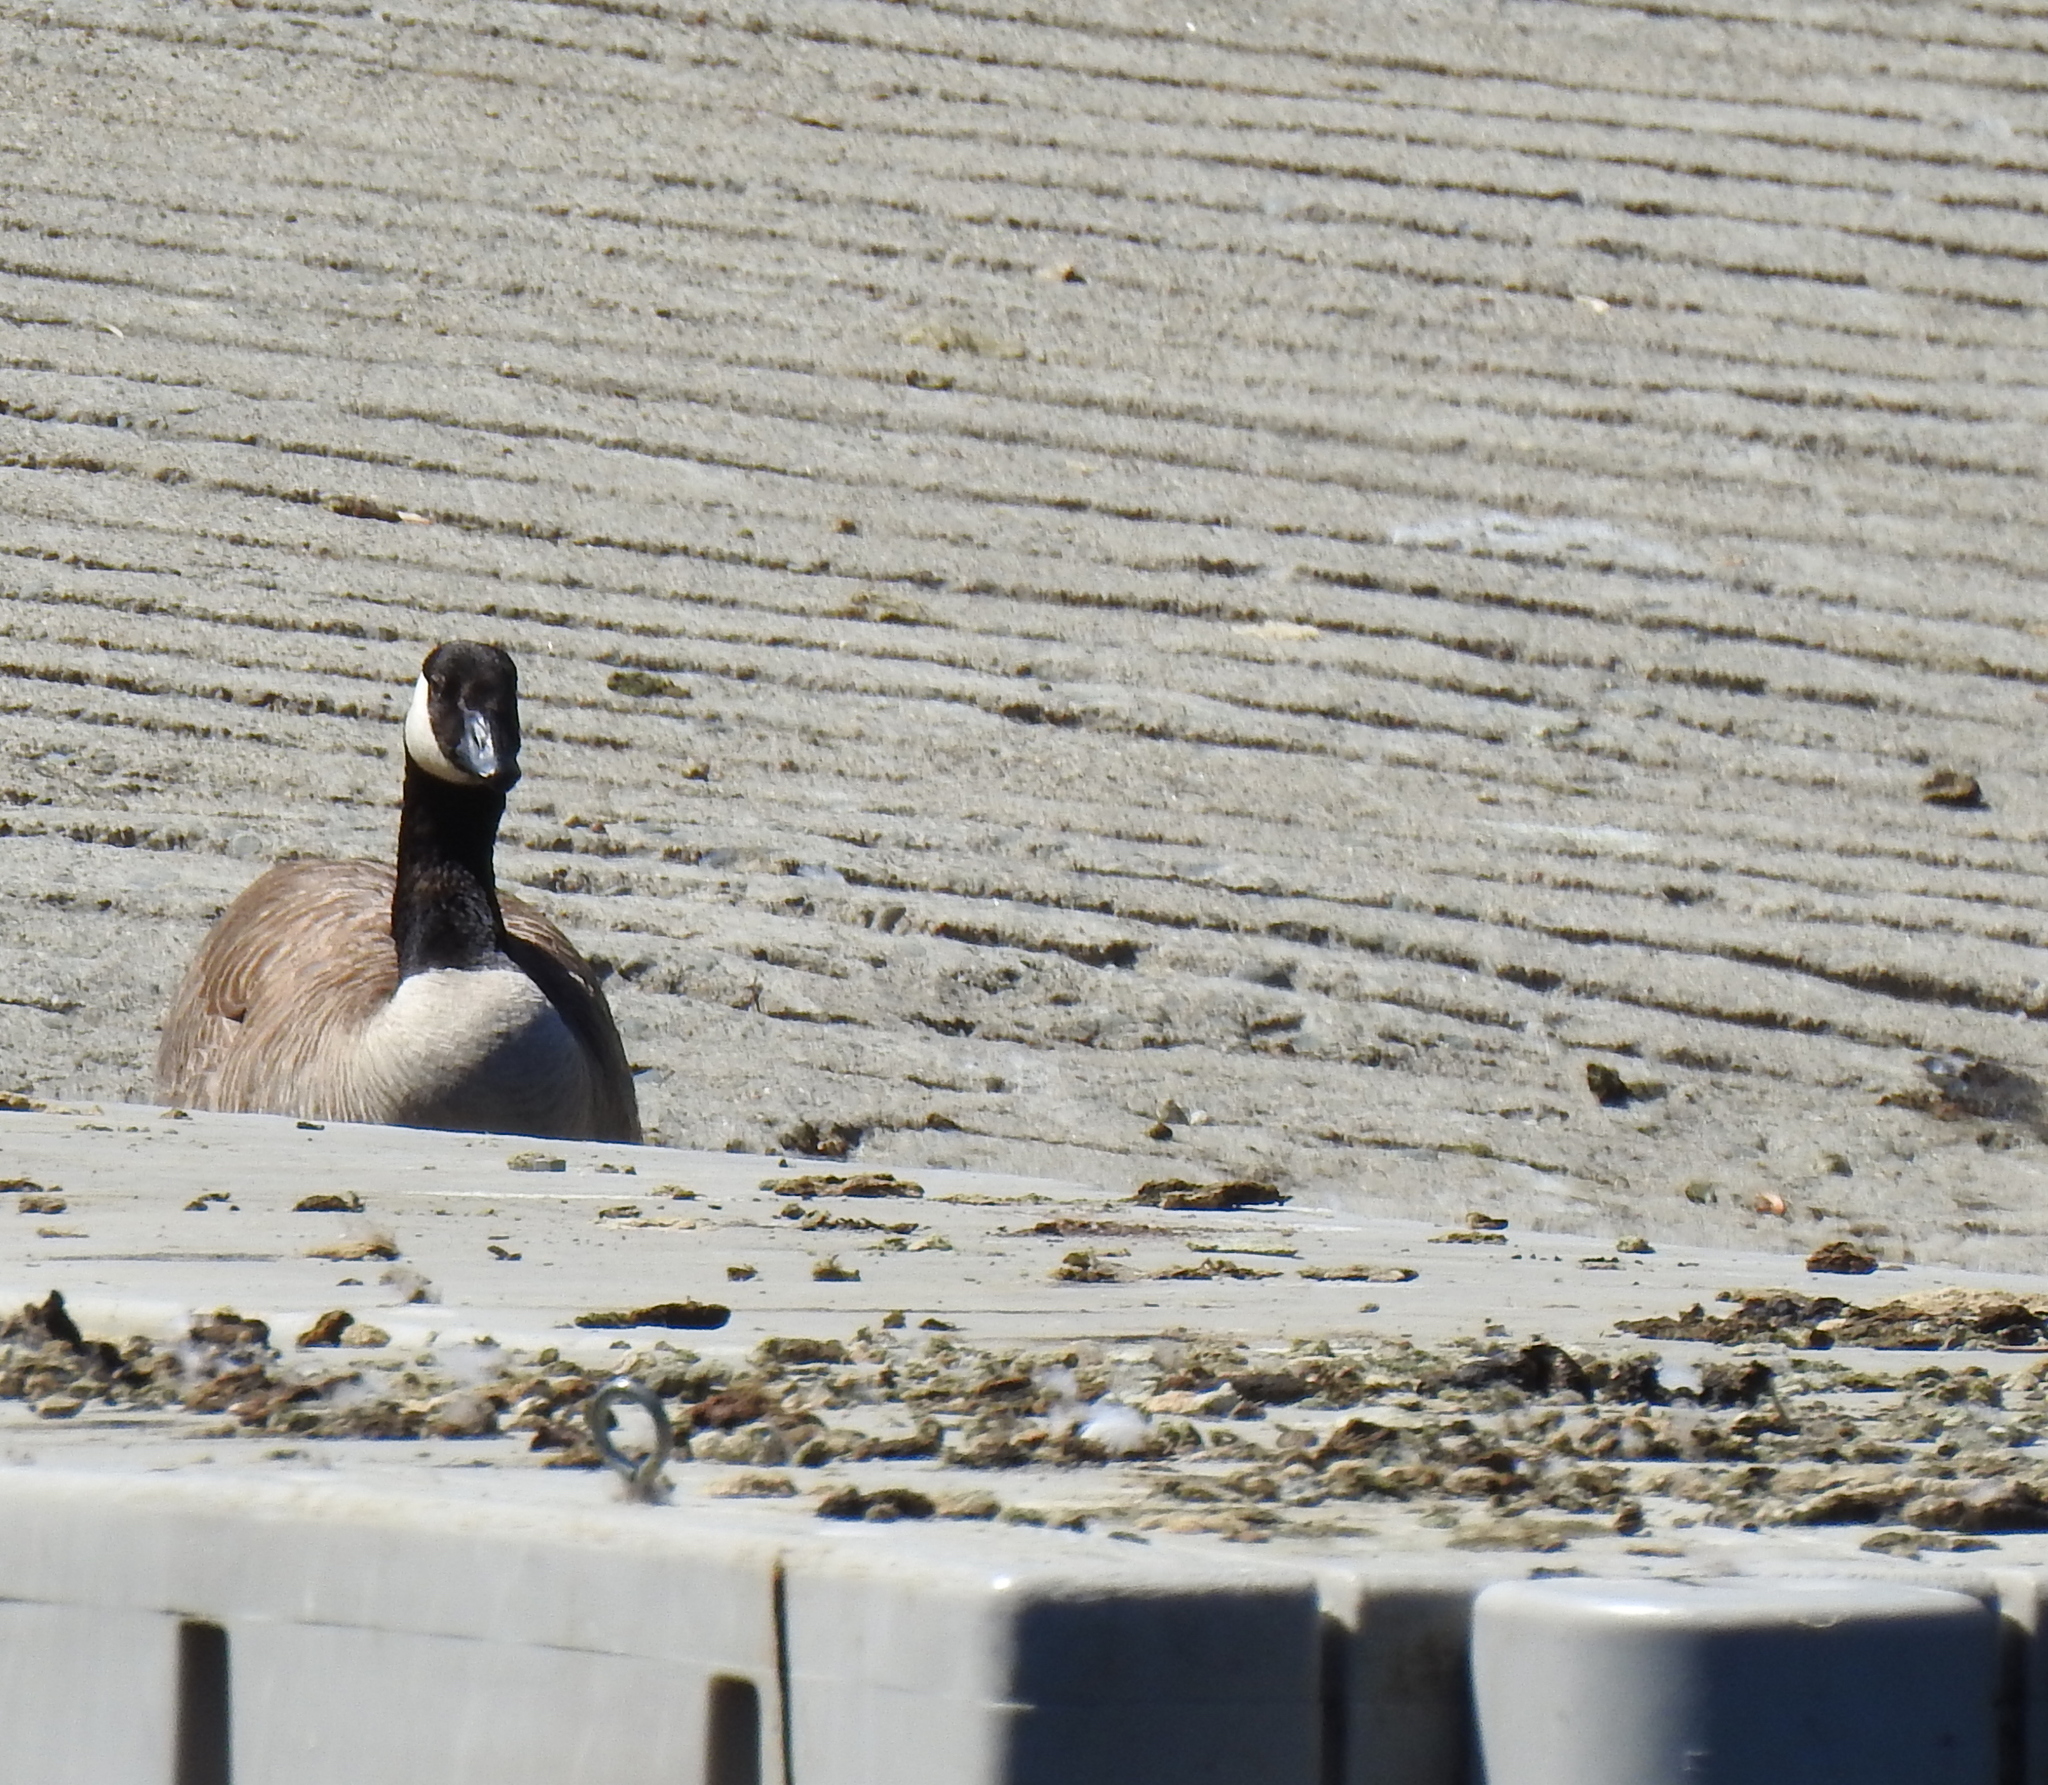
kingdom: Animalia
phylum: Chordata
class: Aves
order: Anseriformes
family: Anatidae
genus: Branta
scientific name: Branta canadensis
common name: Canada goose
